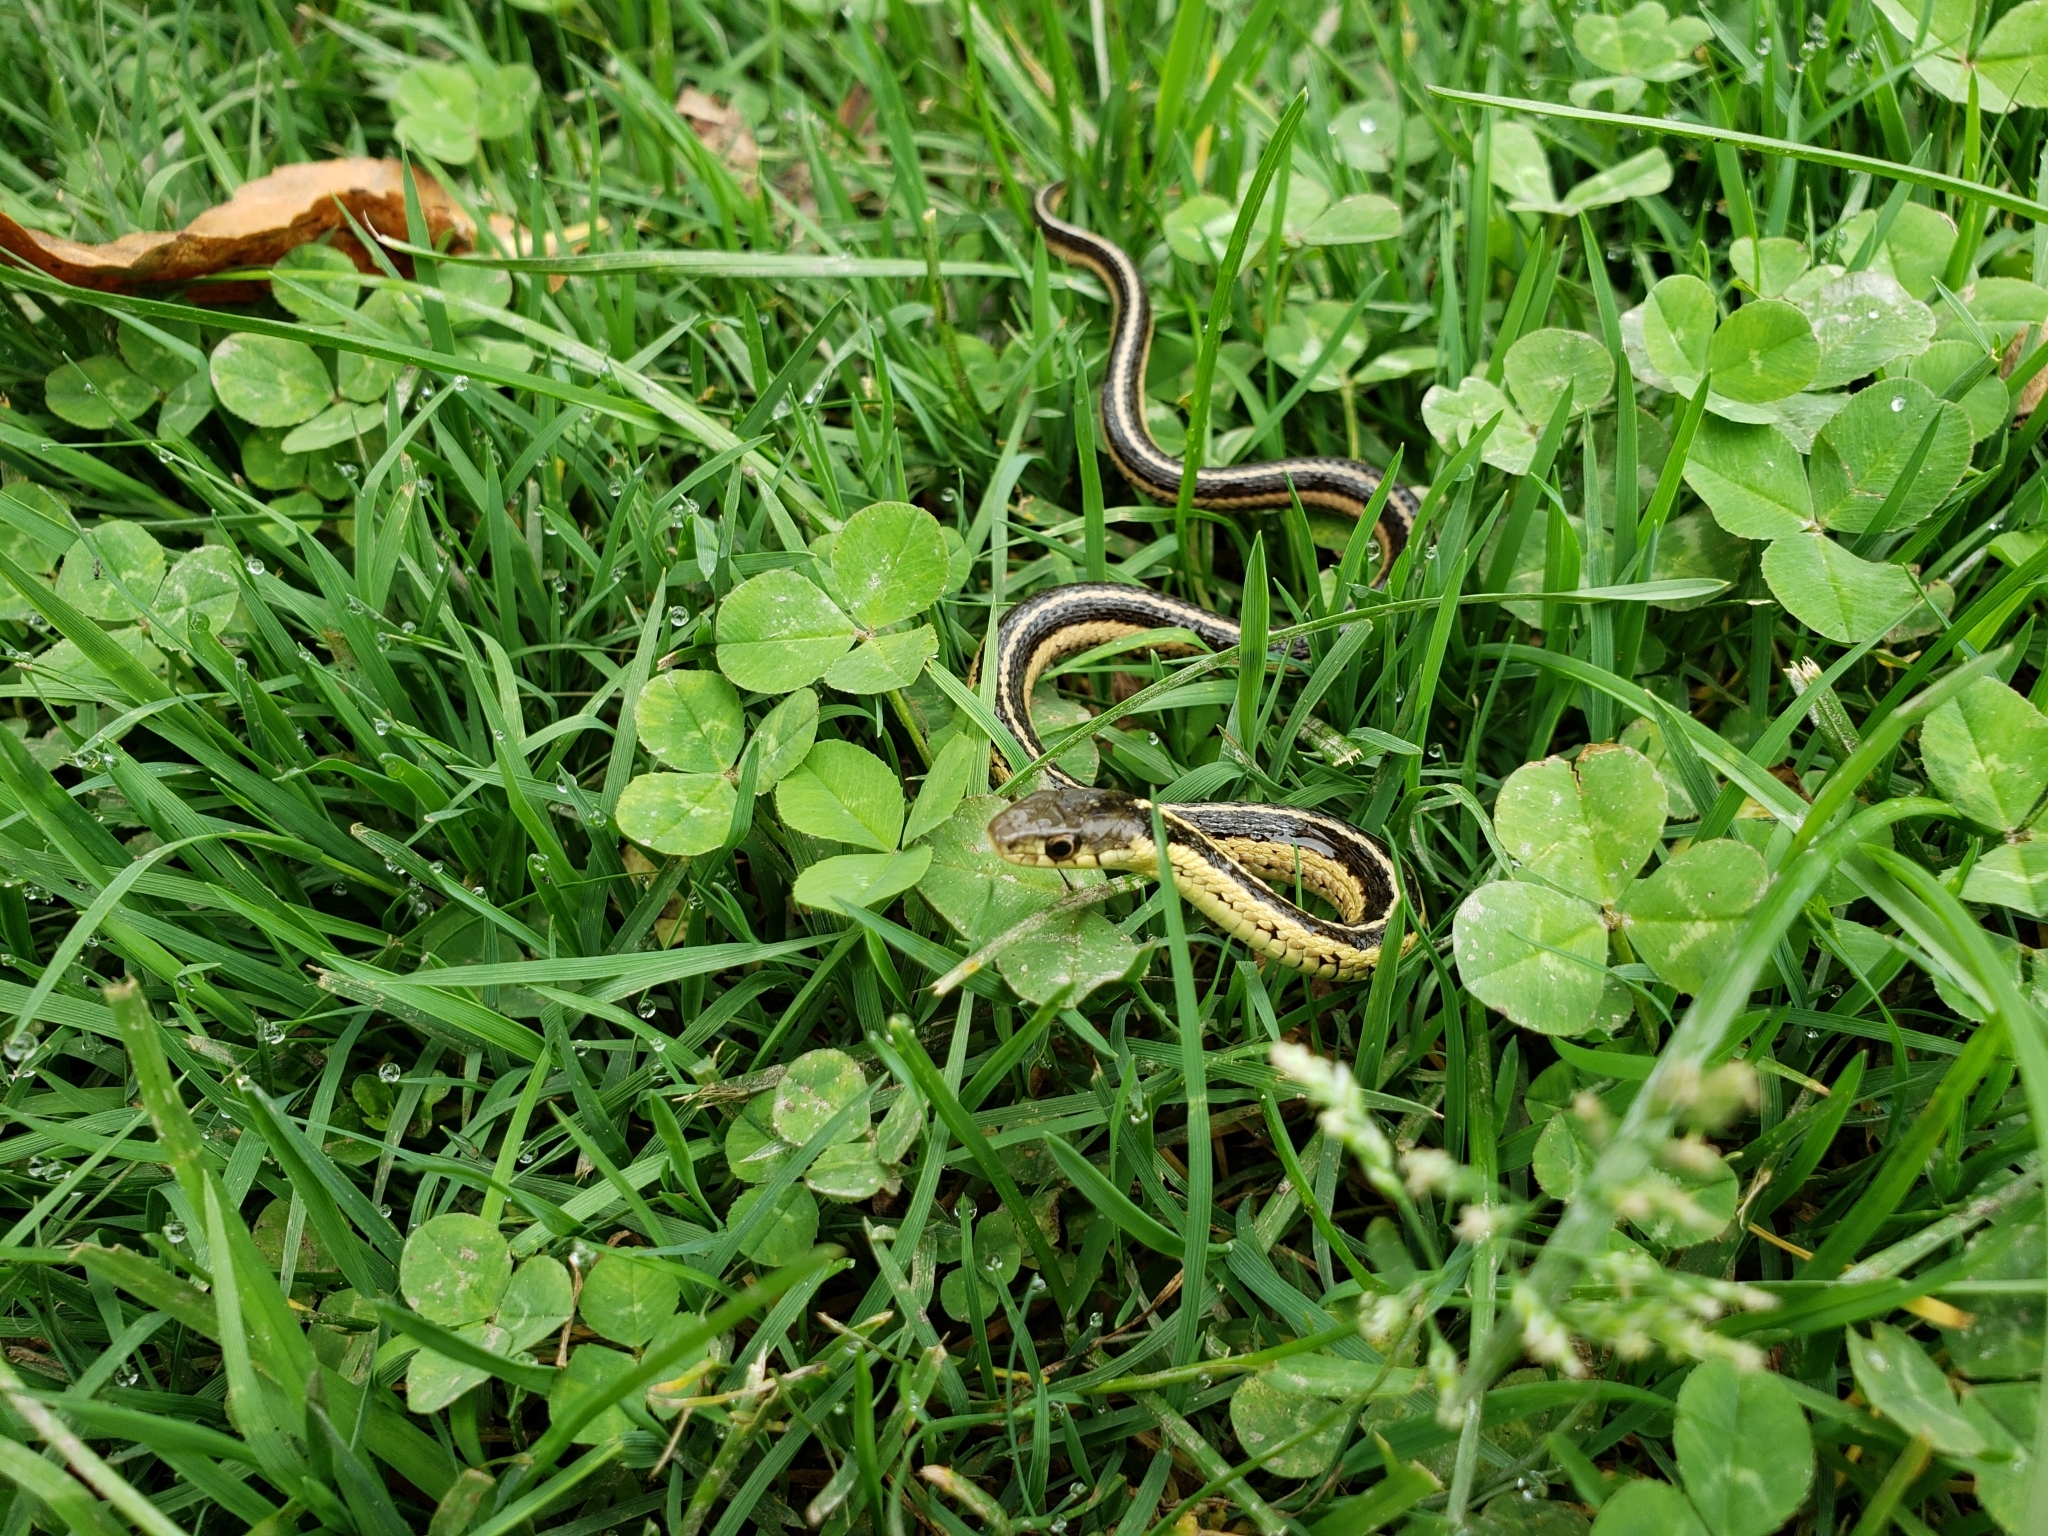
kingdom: Animalia
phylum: Chordata
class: Squamata
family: Colubridae
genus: Thamnophis
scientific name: Thamnophis sirtalis
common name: Common garter snake
